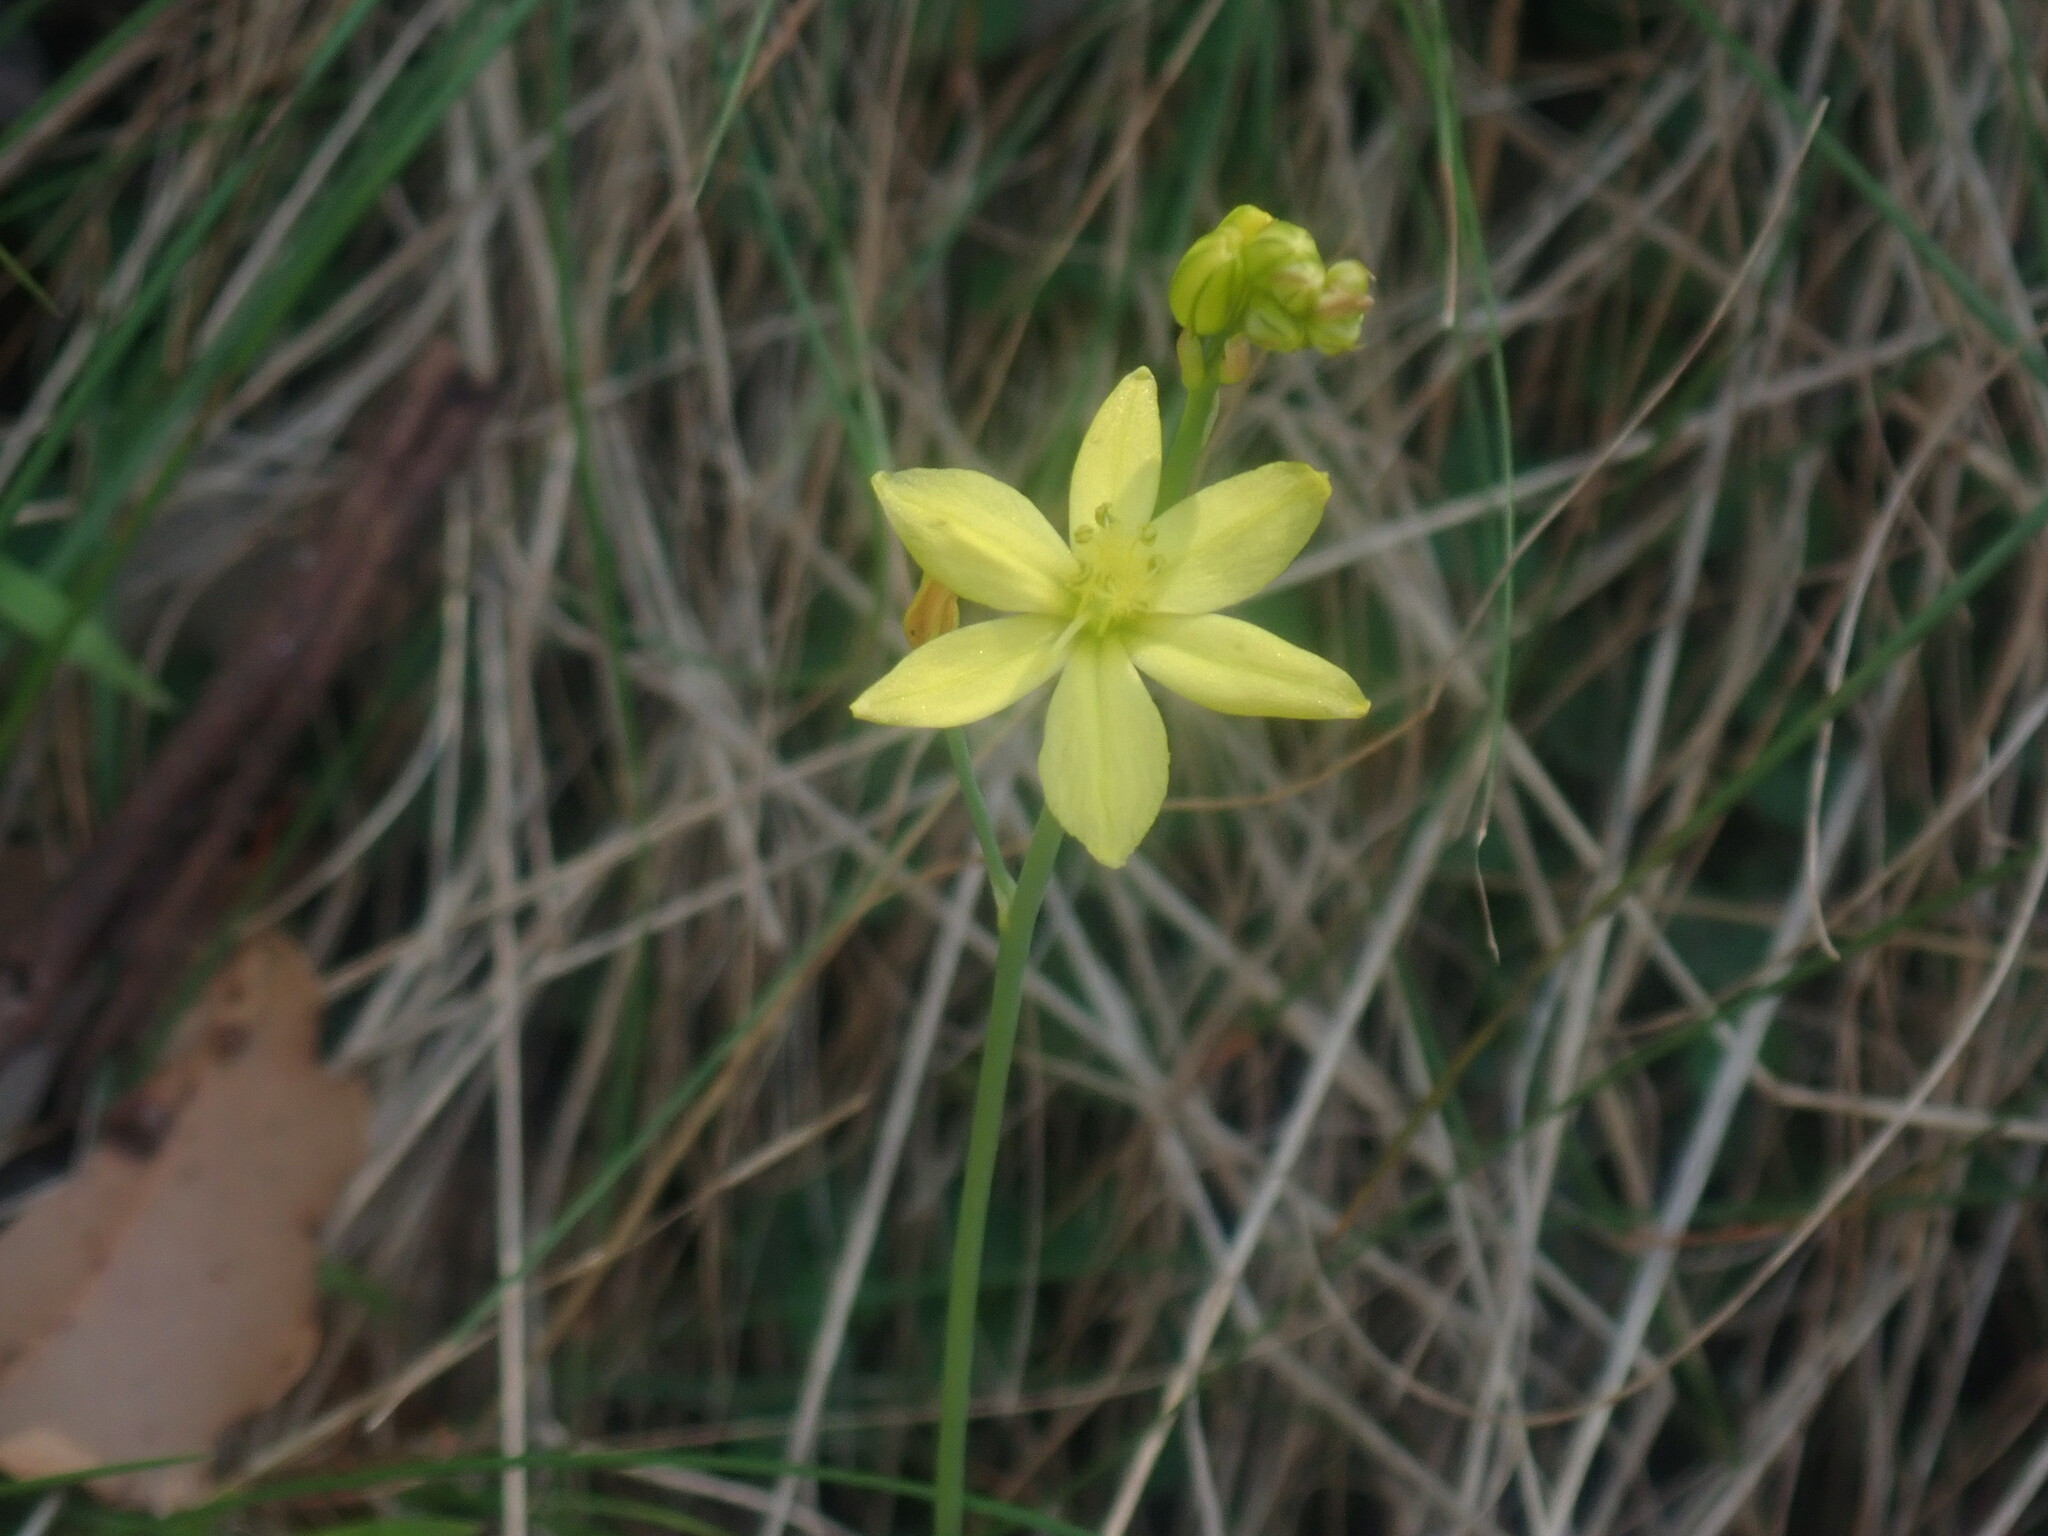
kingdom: Plantae
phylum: Tracheophyta
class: Liliopsida
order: Asparagales
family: Asphodelaceae
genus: Bulbine
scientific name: Bulbine bulbosa
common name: Golden-lily
